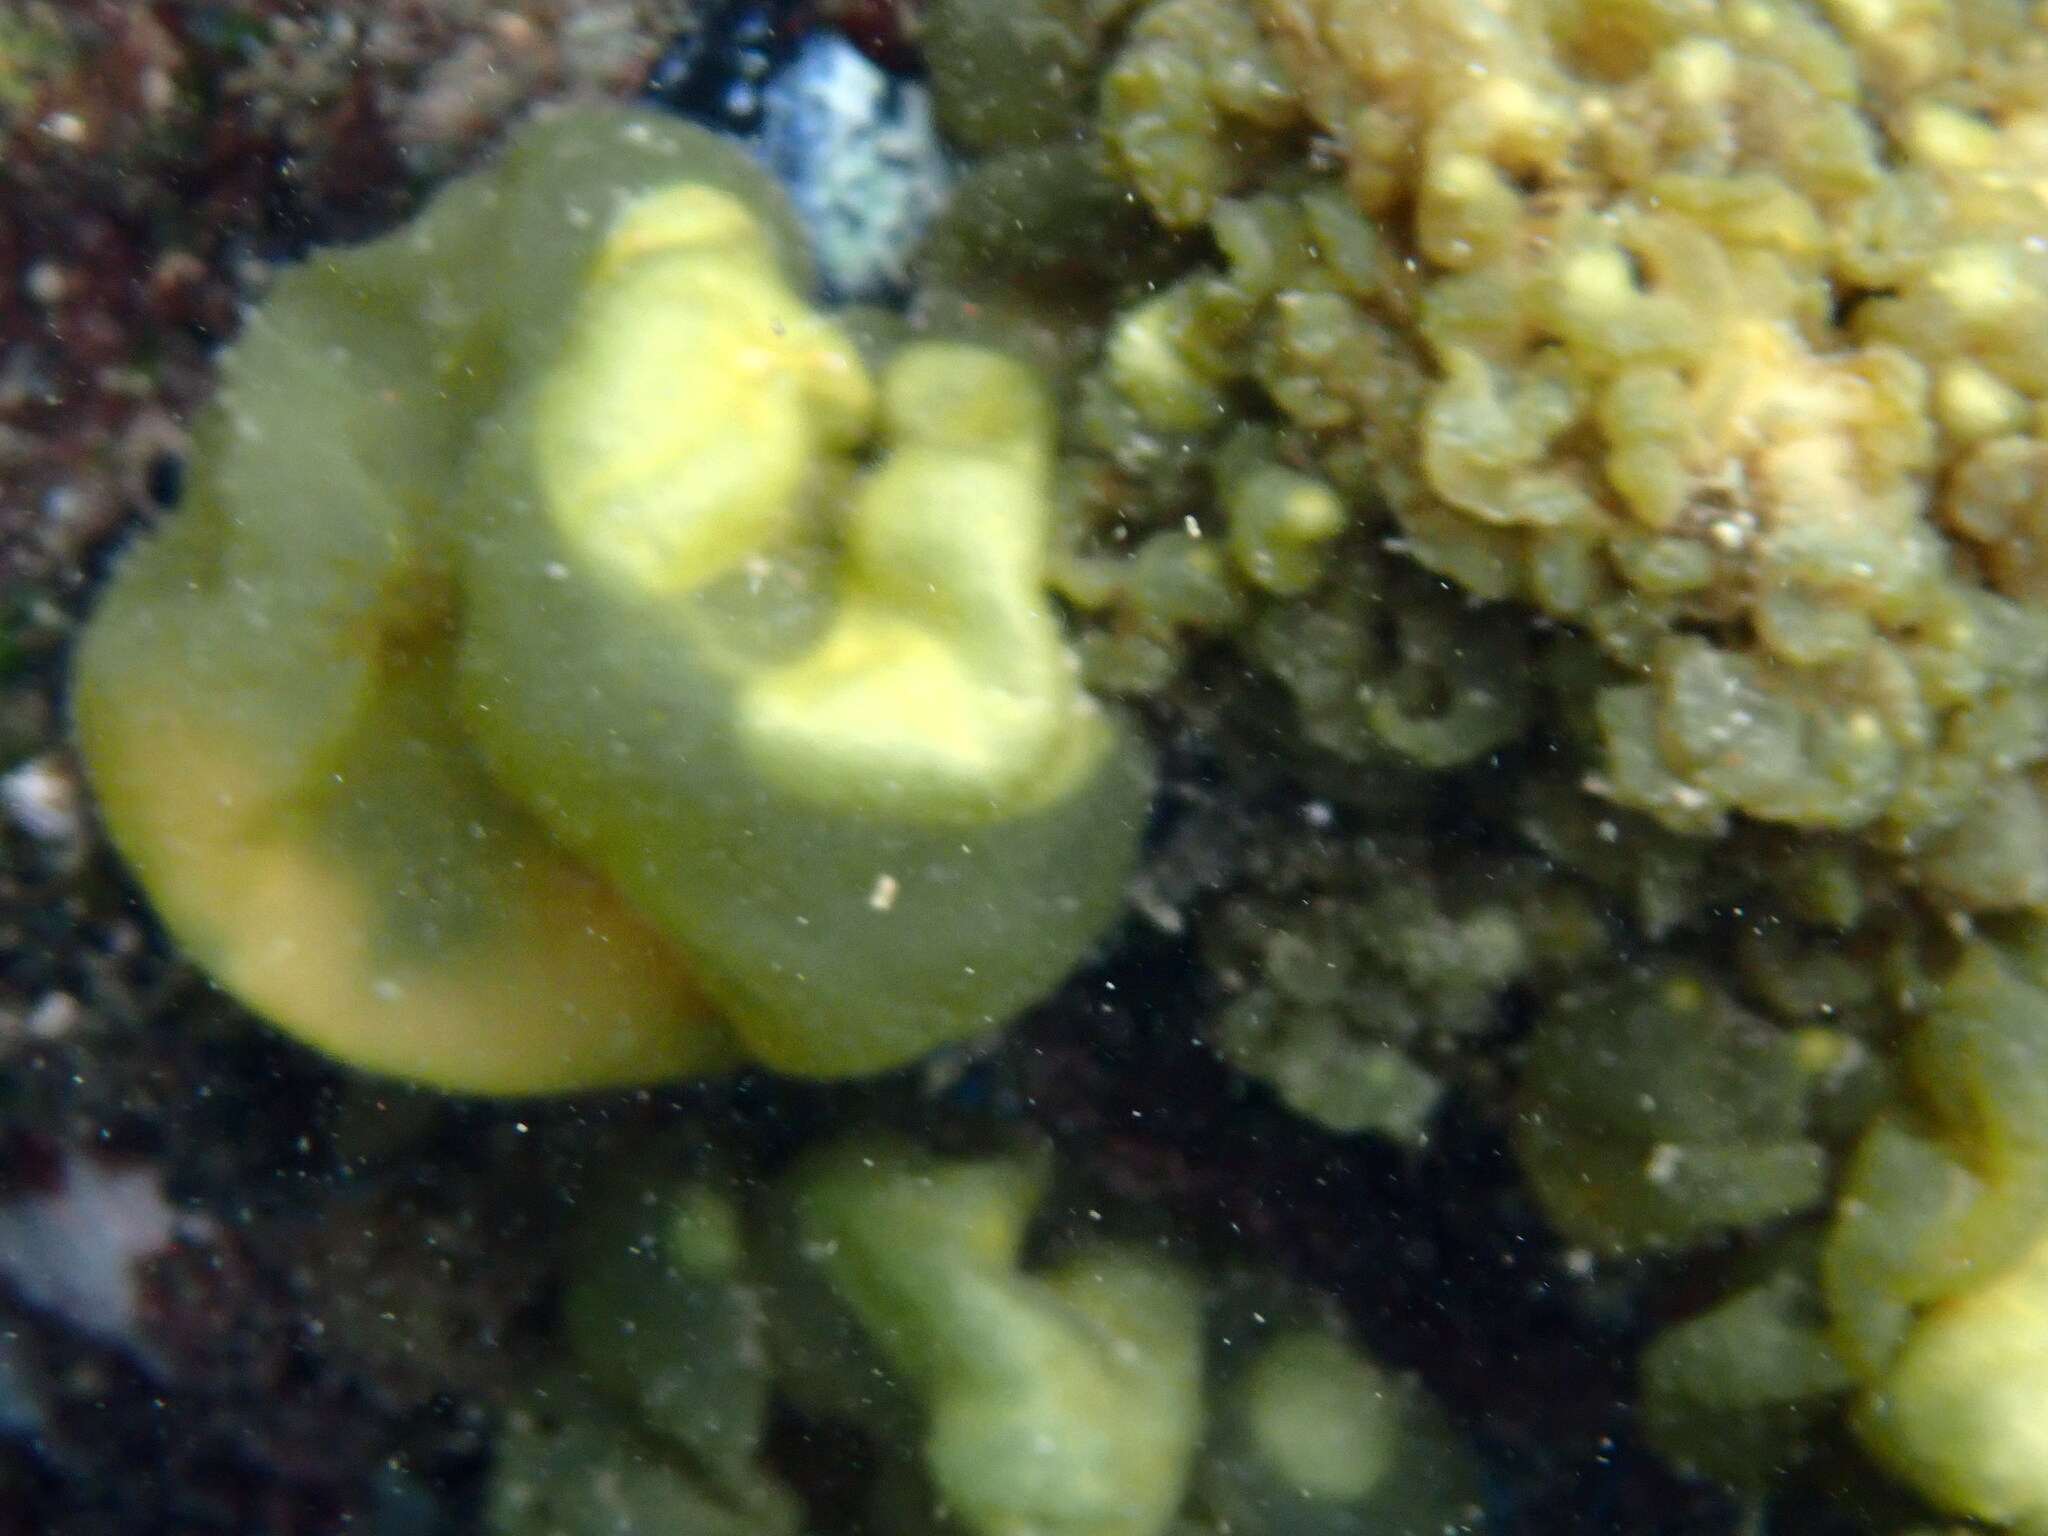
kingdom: Chromista
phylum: Ochrophyta
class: Phaeophyceae
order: Scytosiphonales
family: Scytosiphonaceae
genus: Colpomenia
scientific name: Colpomenia sinuosa
